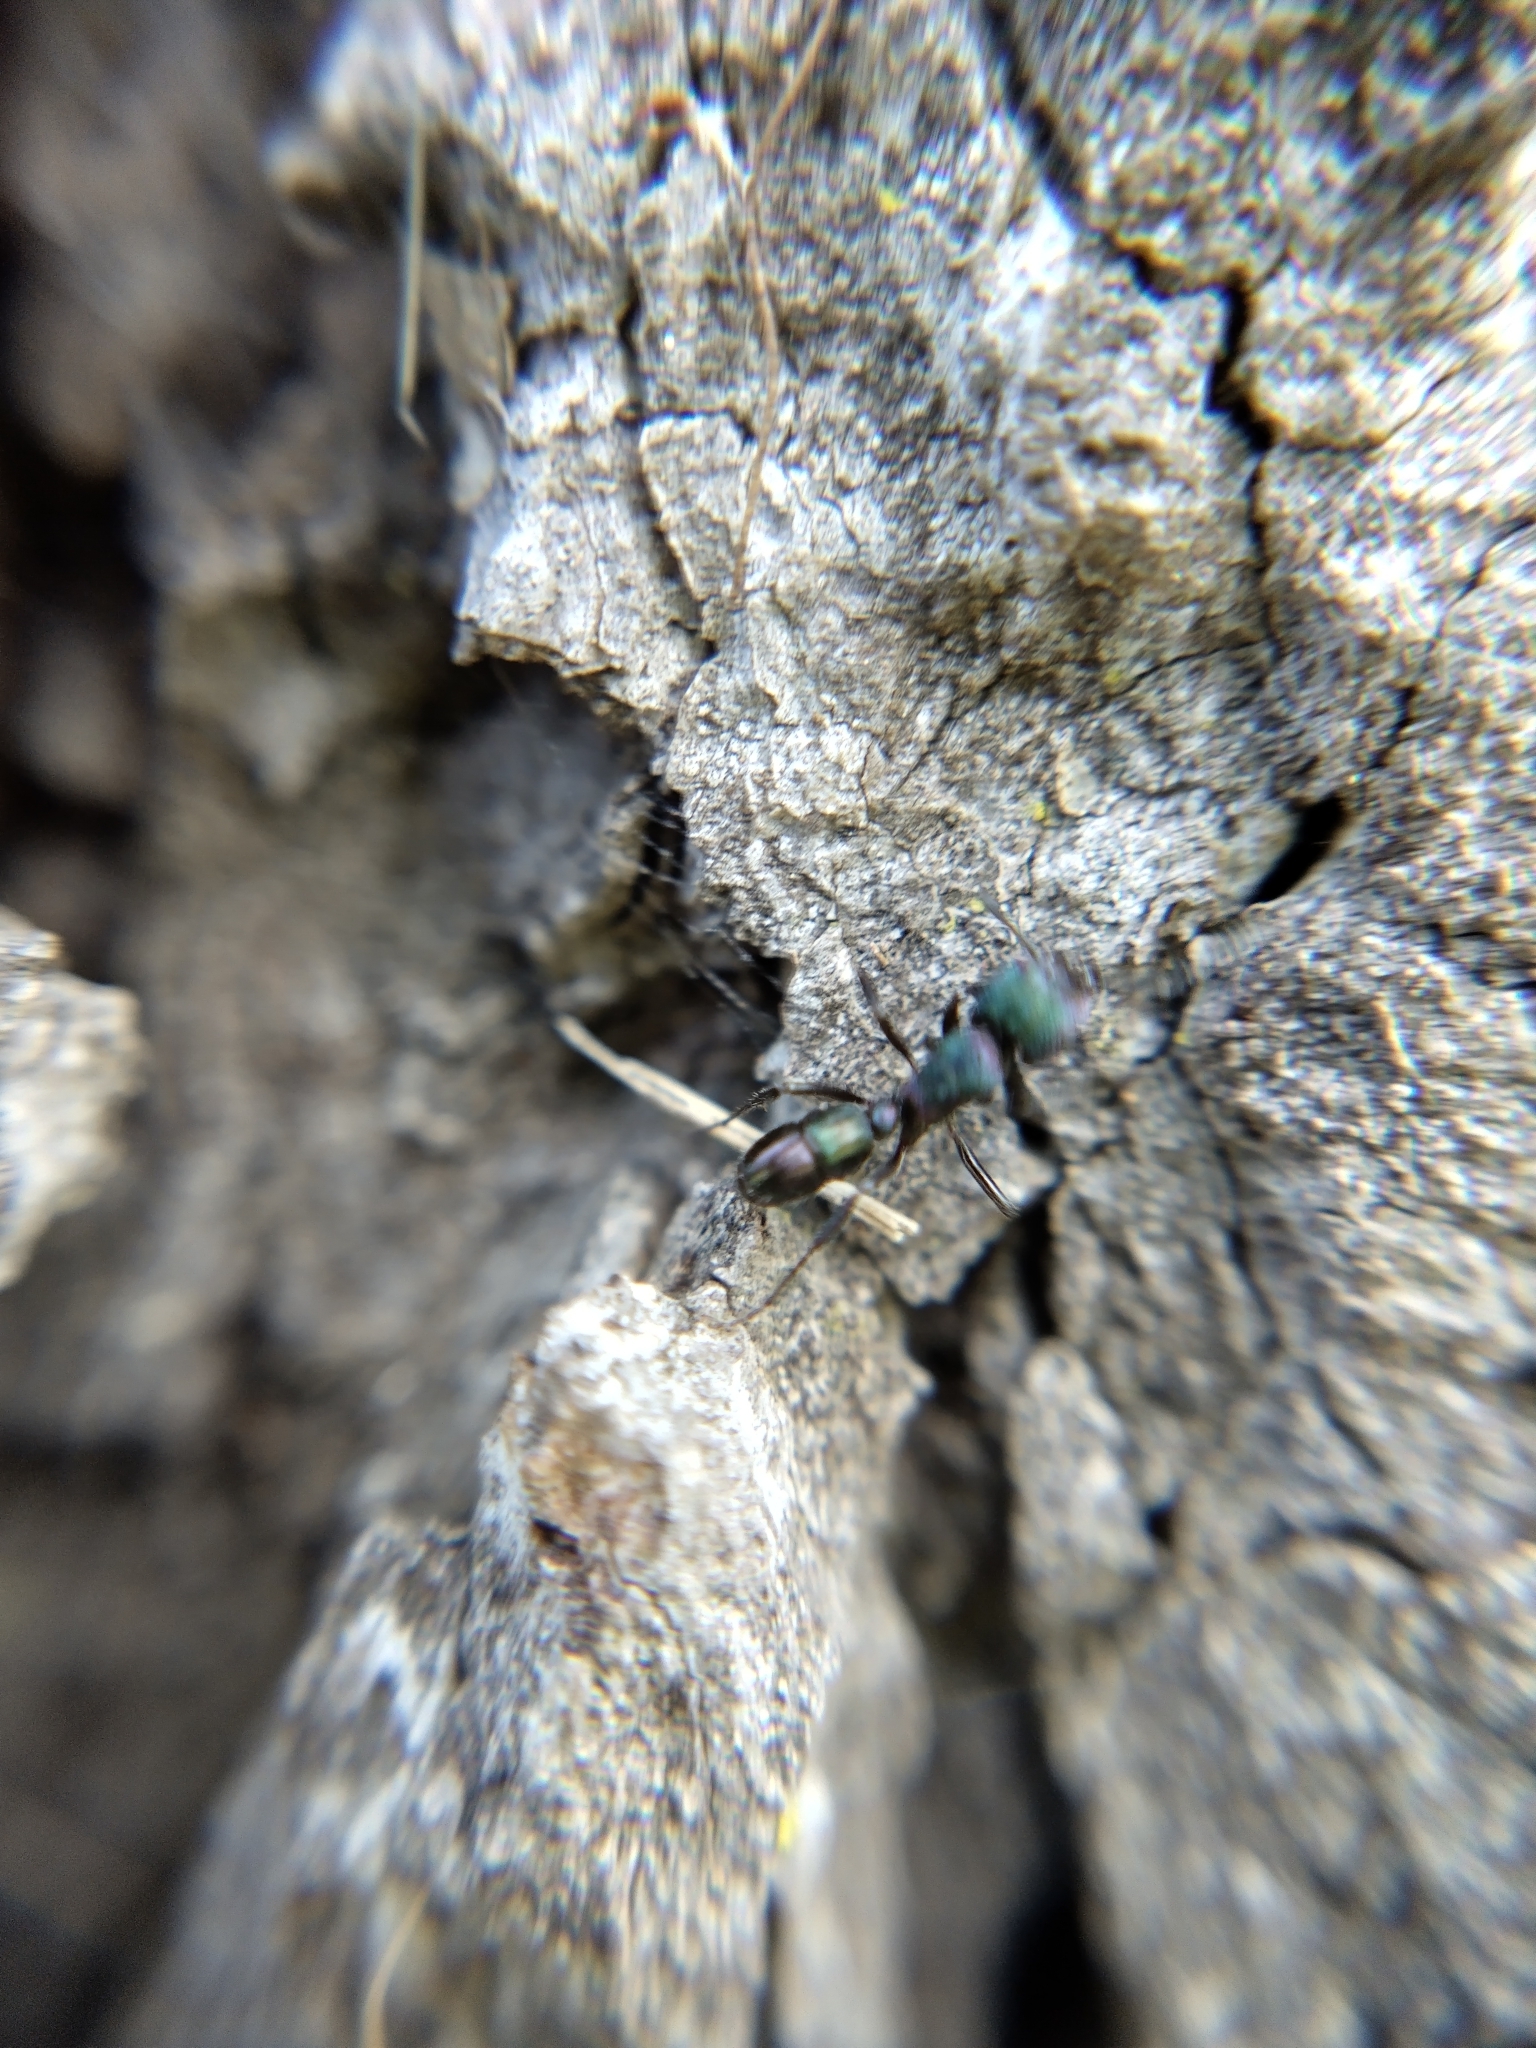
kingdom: Animalia
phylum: Arthropoda
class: Insecta
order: Hymenoptera
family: Formicidae
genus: Rhytidoponera
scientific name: Rhytidoponera metallica
